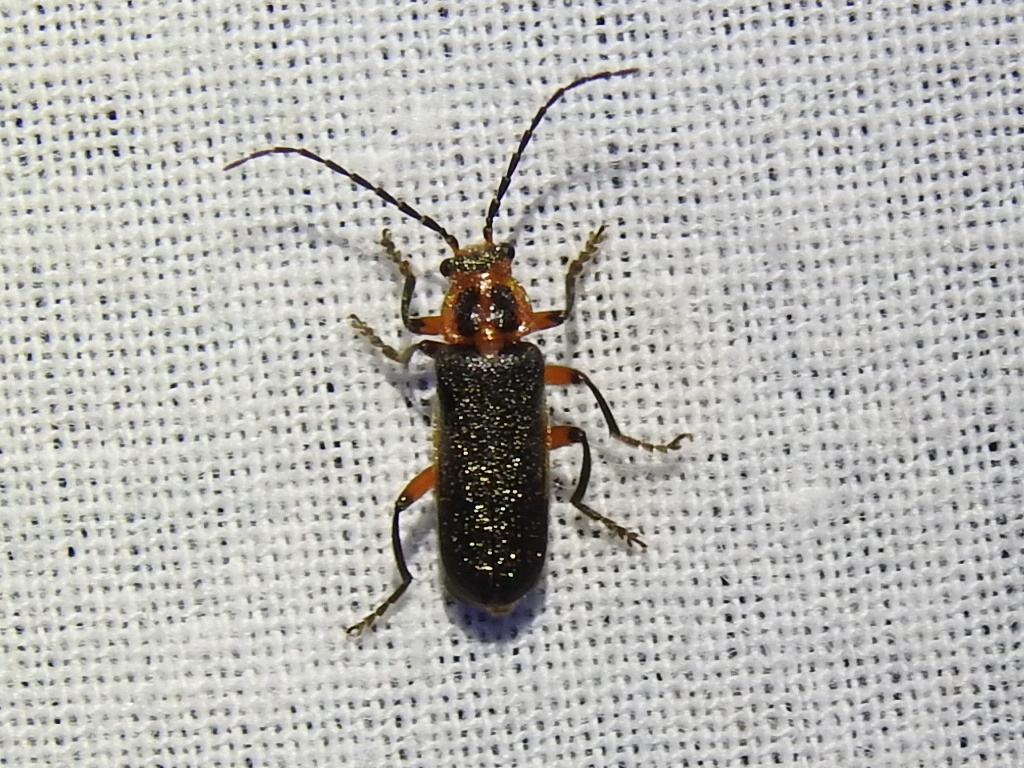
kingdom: Animalia
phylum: Arthropoda
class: Insecta
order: Coleoptera
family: Cantharidae
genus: Atalantycha
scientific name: Atalantycha bilineata
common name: Two-lined leatherwing
